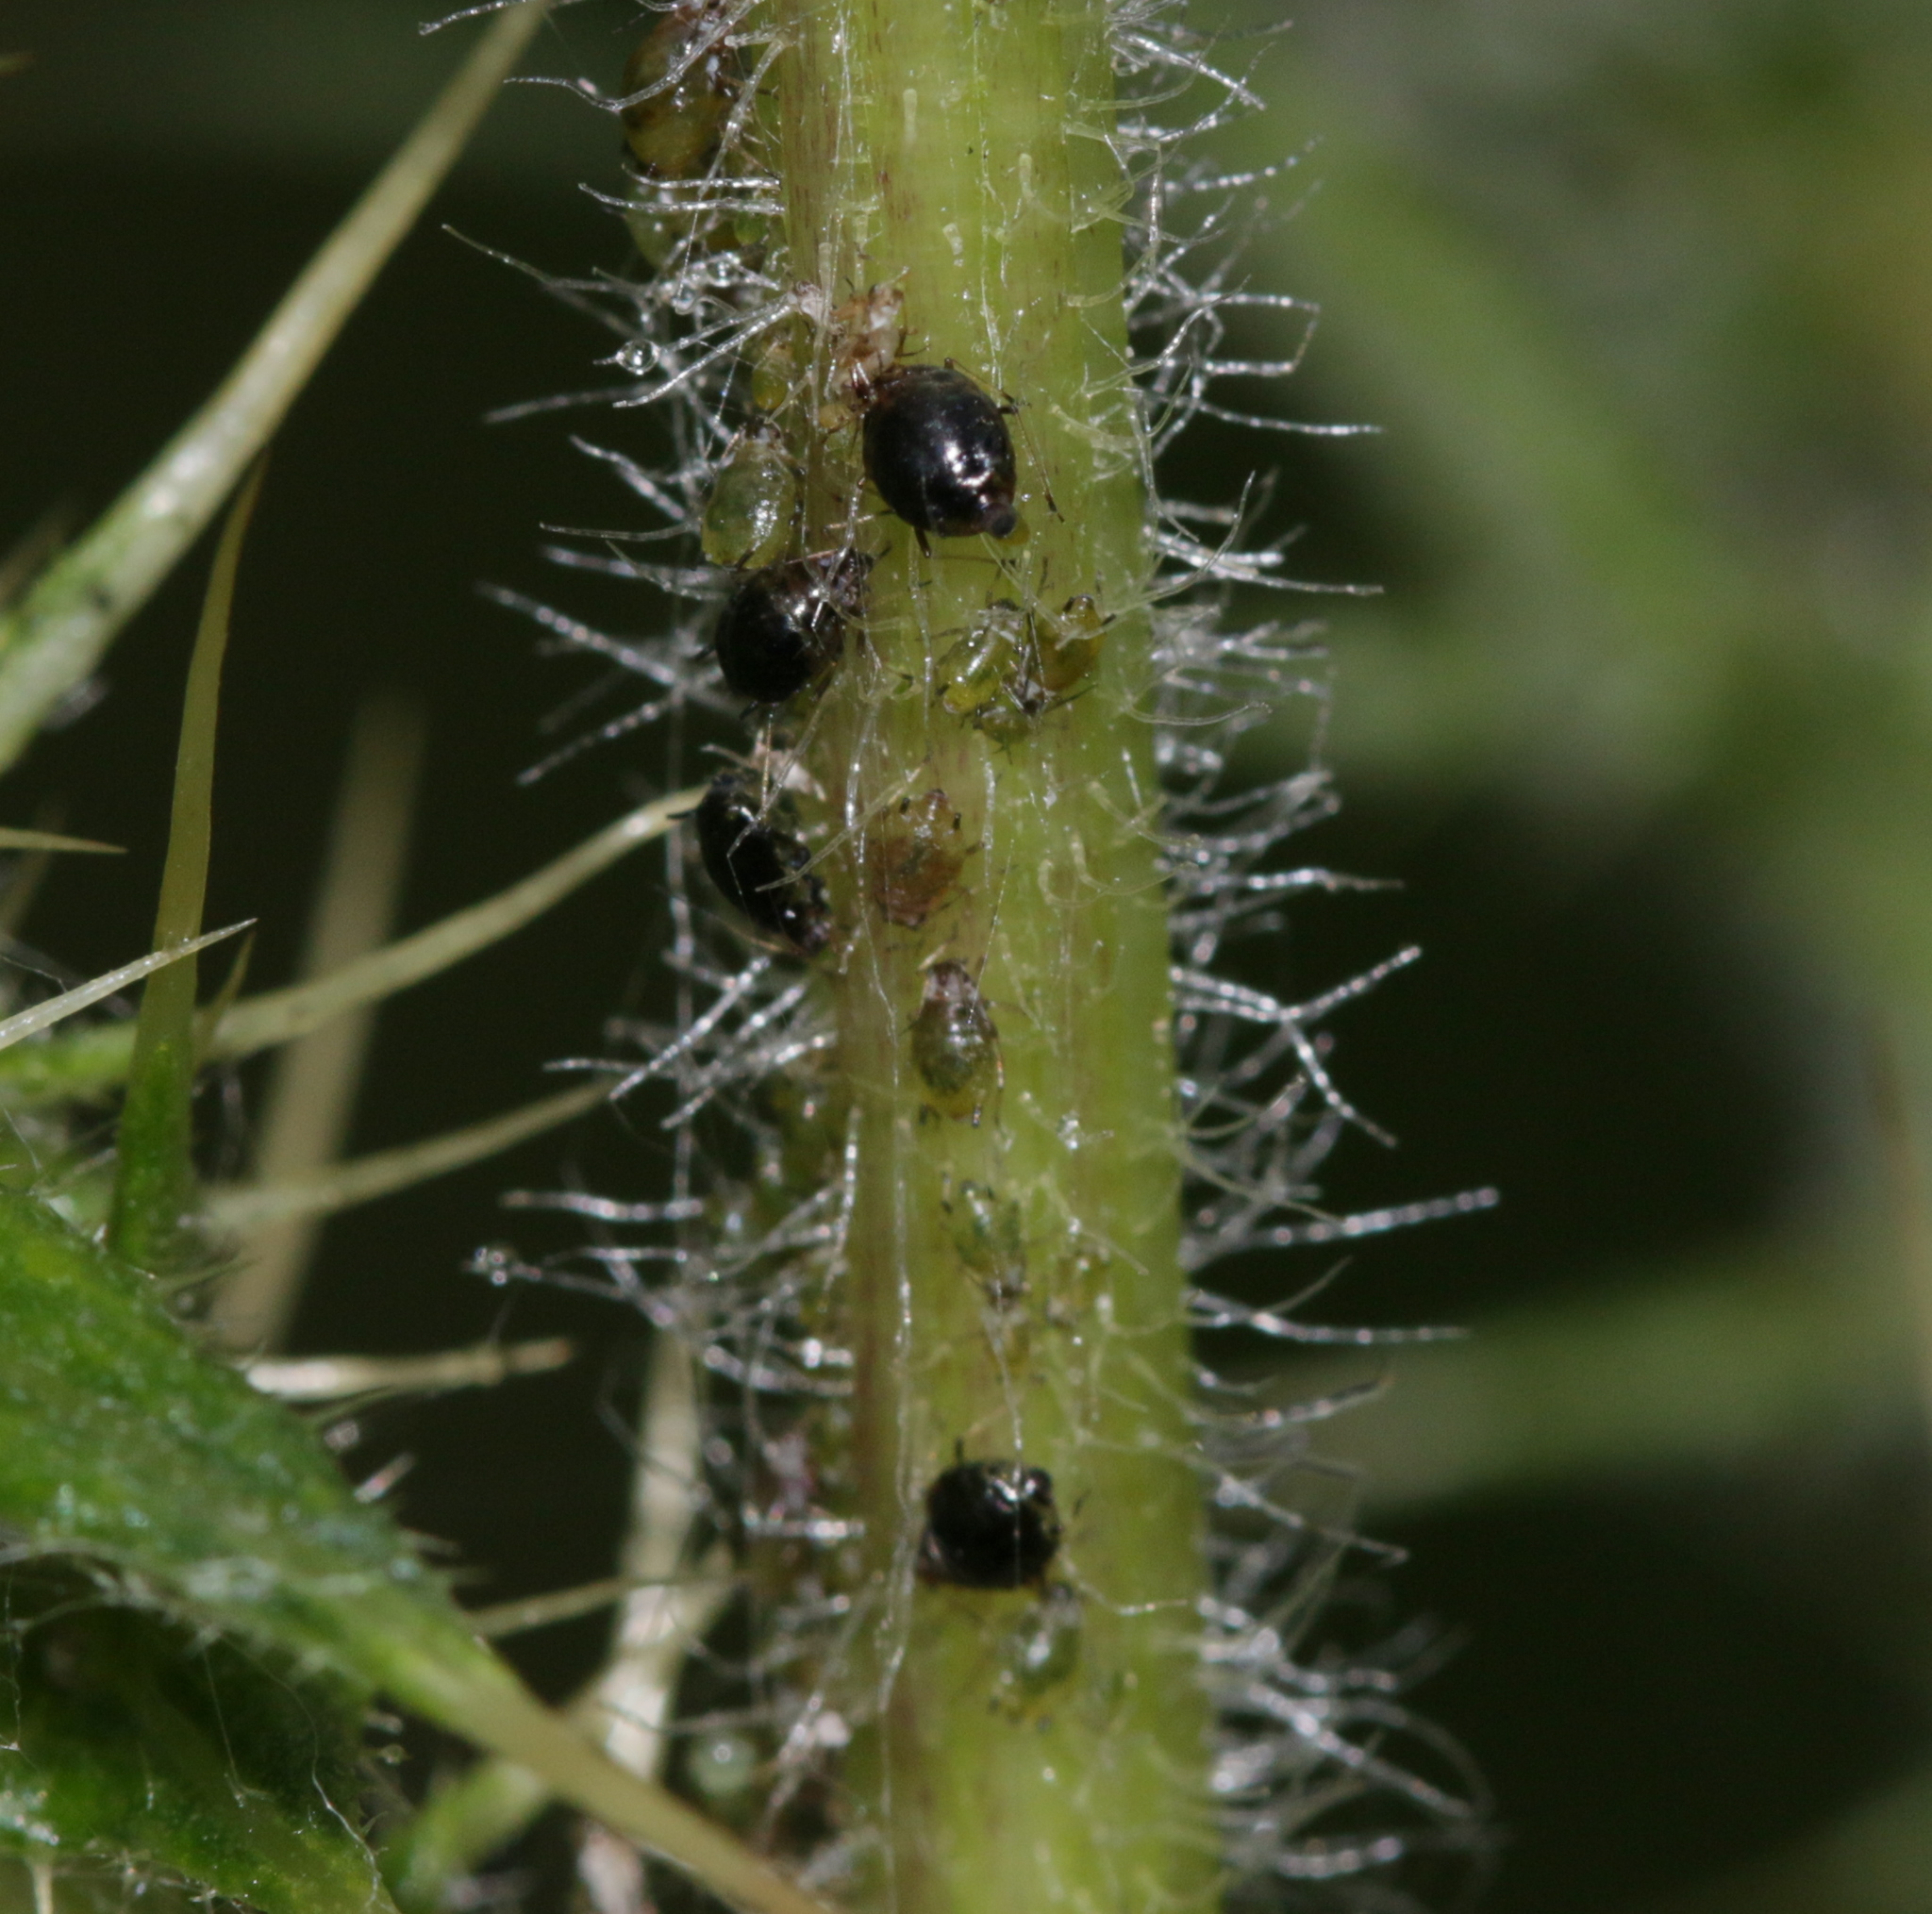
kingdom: Animalia
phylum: Arthropoda
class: Insecta
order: Hemiptera
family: Aphididae
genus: Brachycaudus
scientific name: Brachycaudus cardui
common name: Thistle aphid
